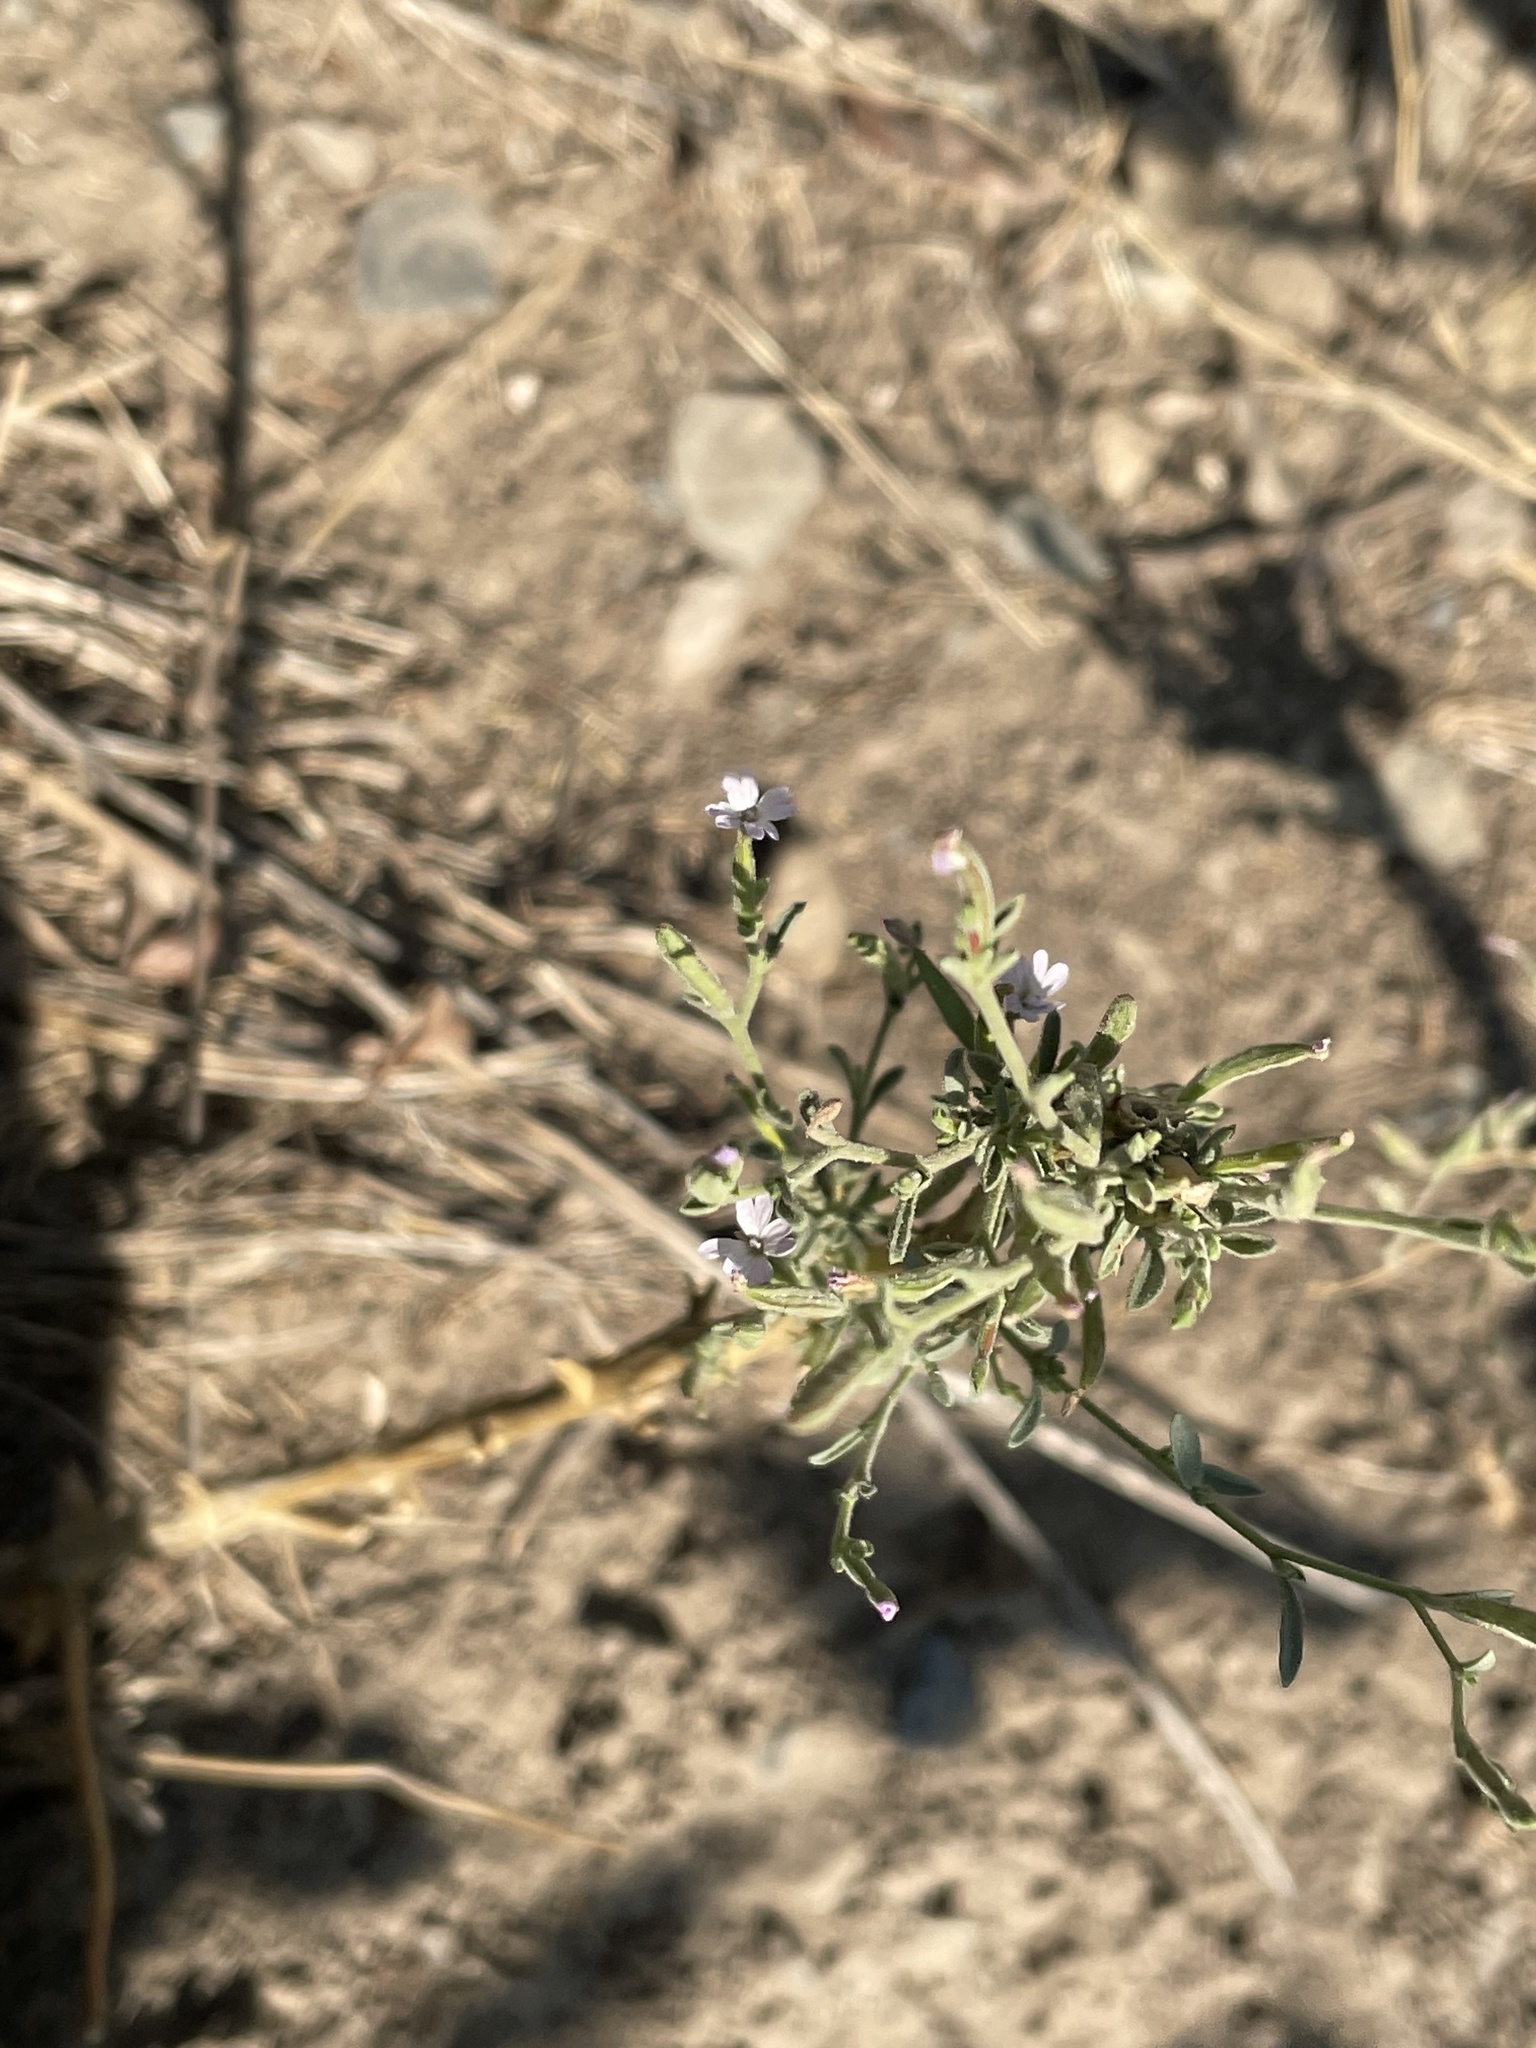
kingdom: Plantae
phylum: Tracheophyta
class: Magnoliopsida
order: Myrtales
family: Onagraceae
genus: Epilobium
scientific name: Epilobium brachycarpum
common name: Annual willowherb
